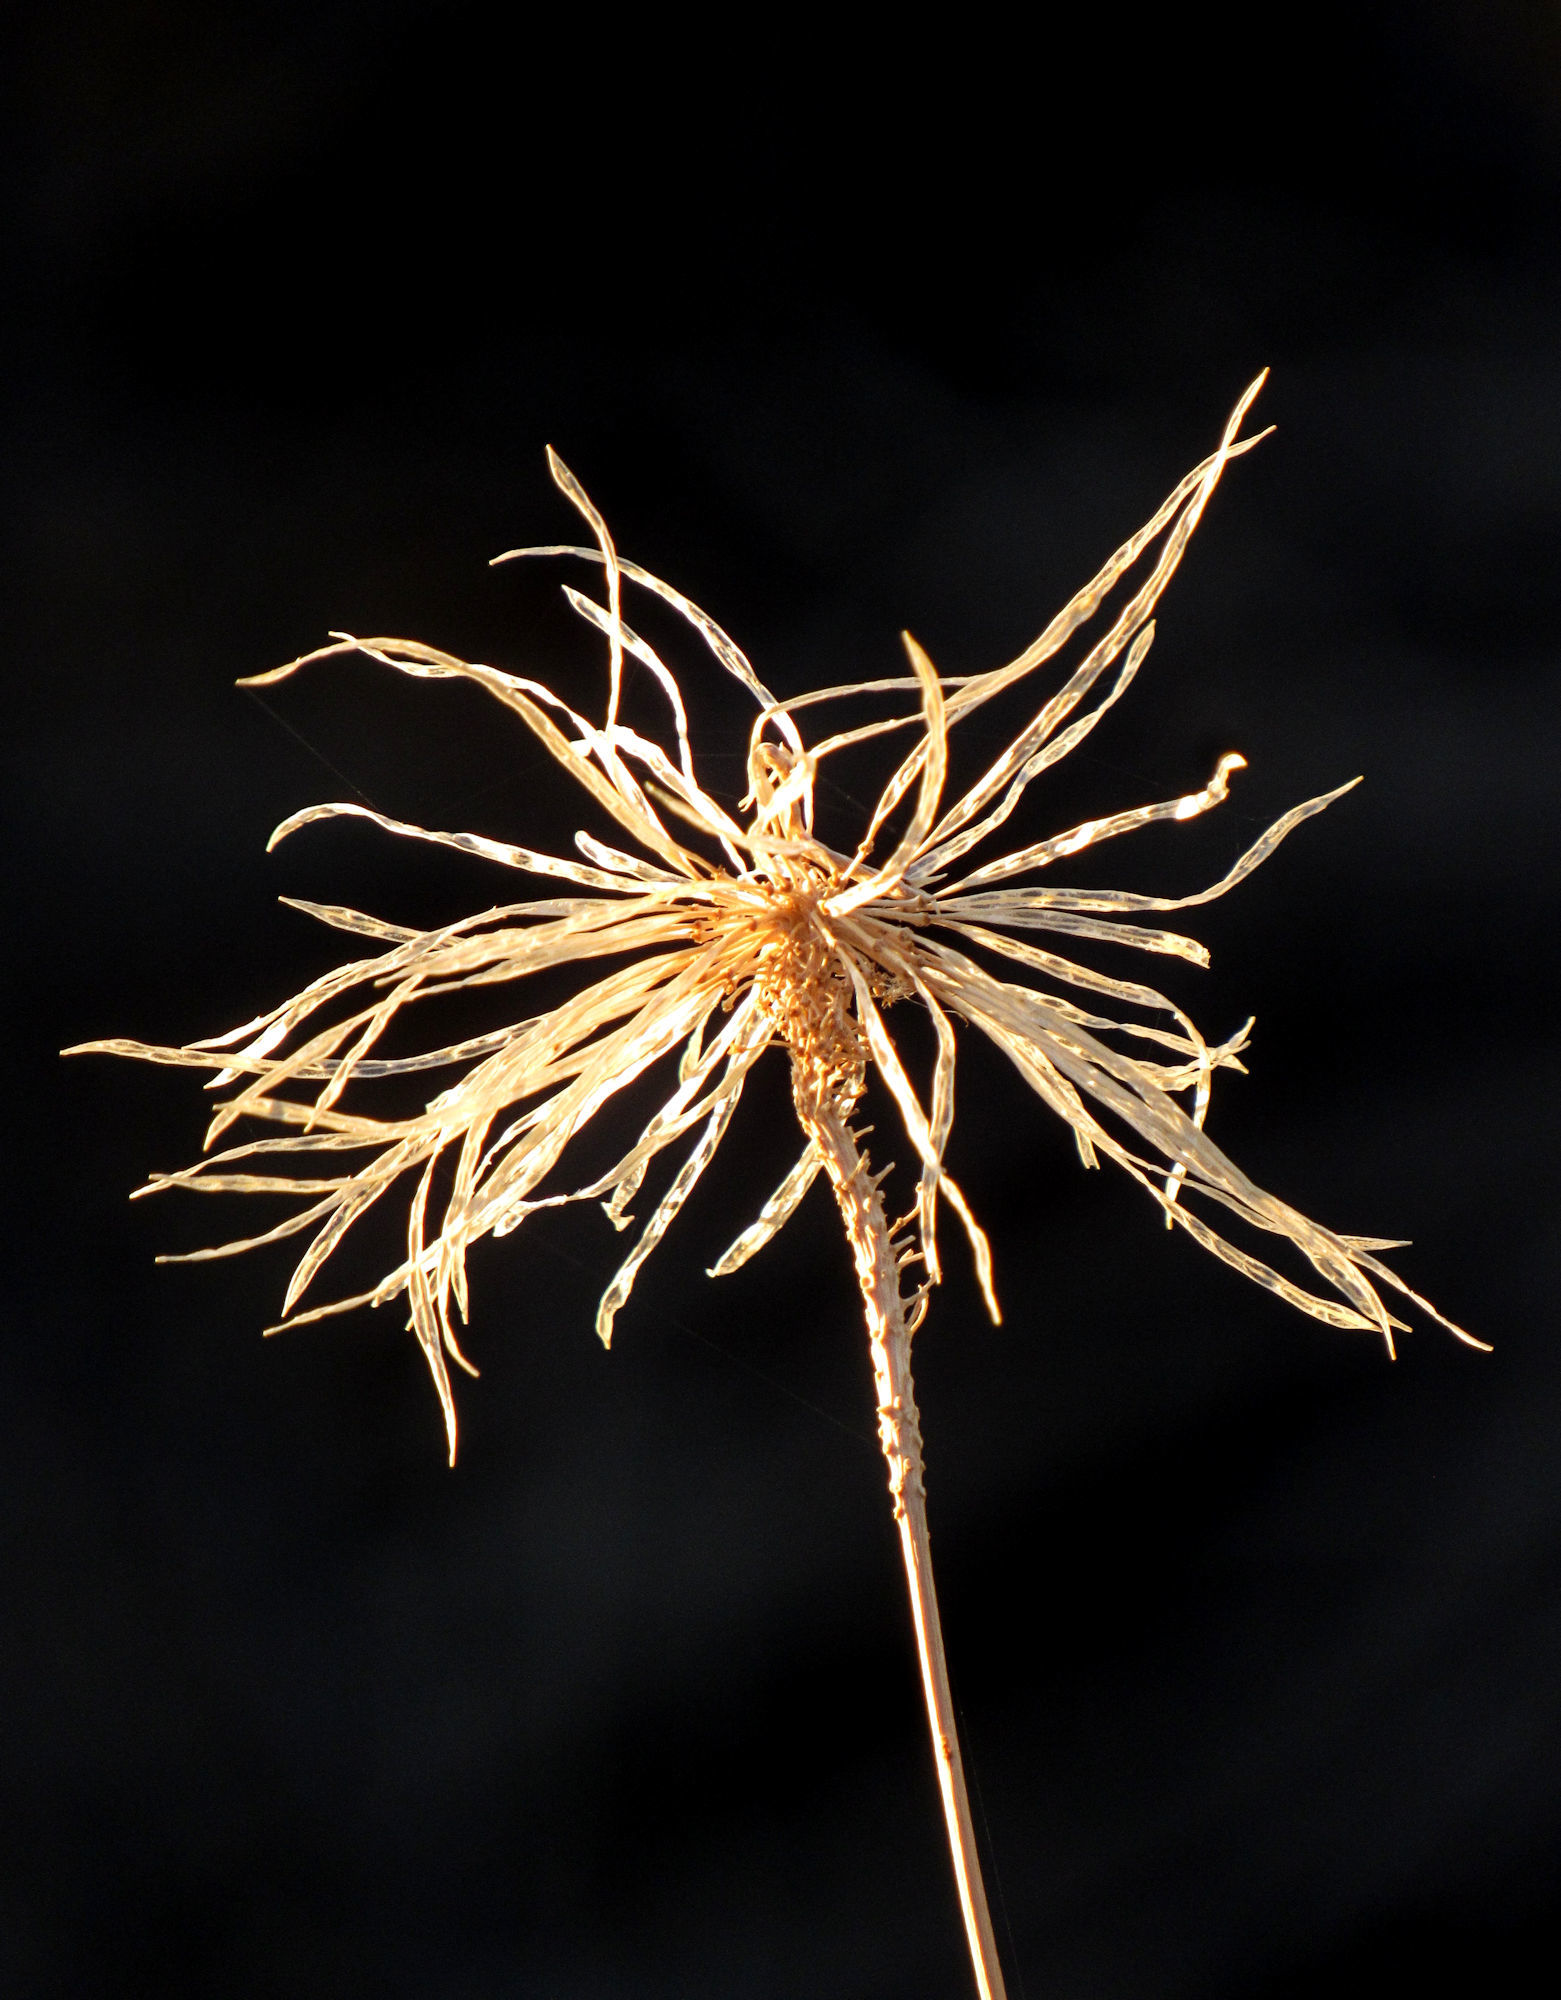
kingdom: Plantae
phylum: Tracheophyta
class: Magnoliopsida
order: Brassicales
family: Brassicaceae
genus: Thelypodium
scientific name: Thelypodium integrifolium
